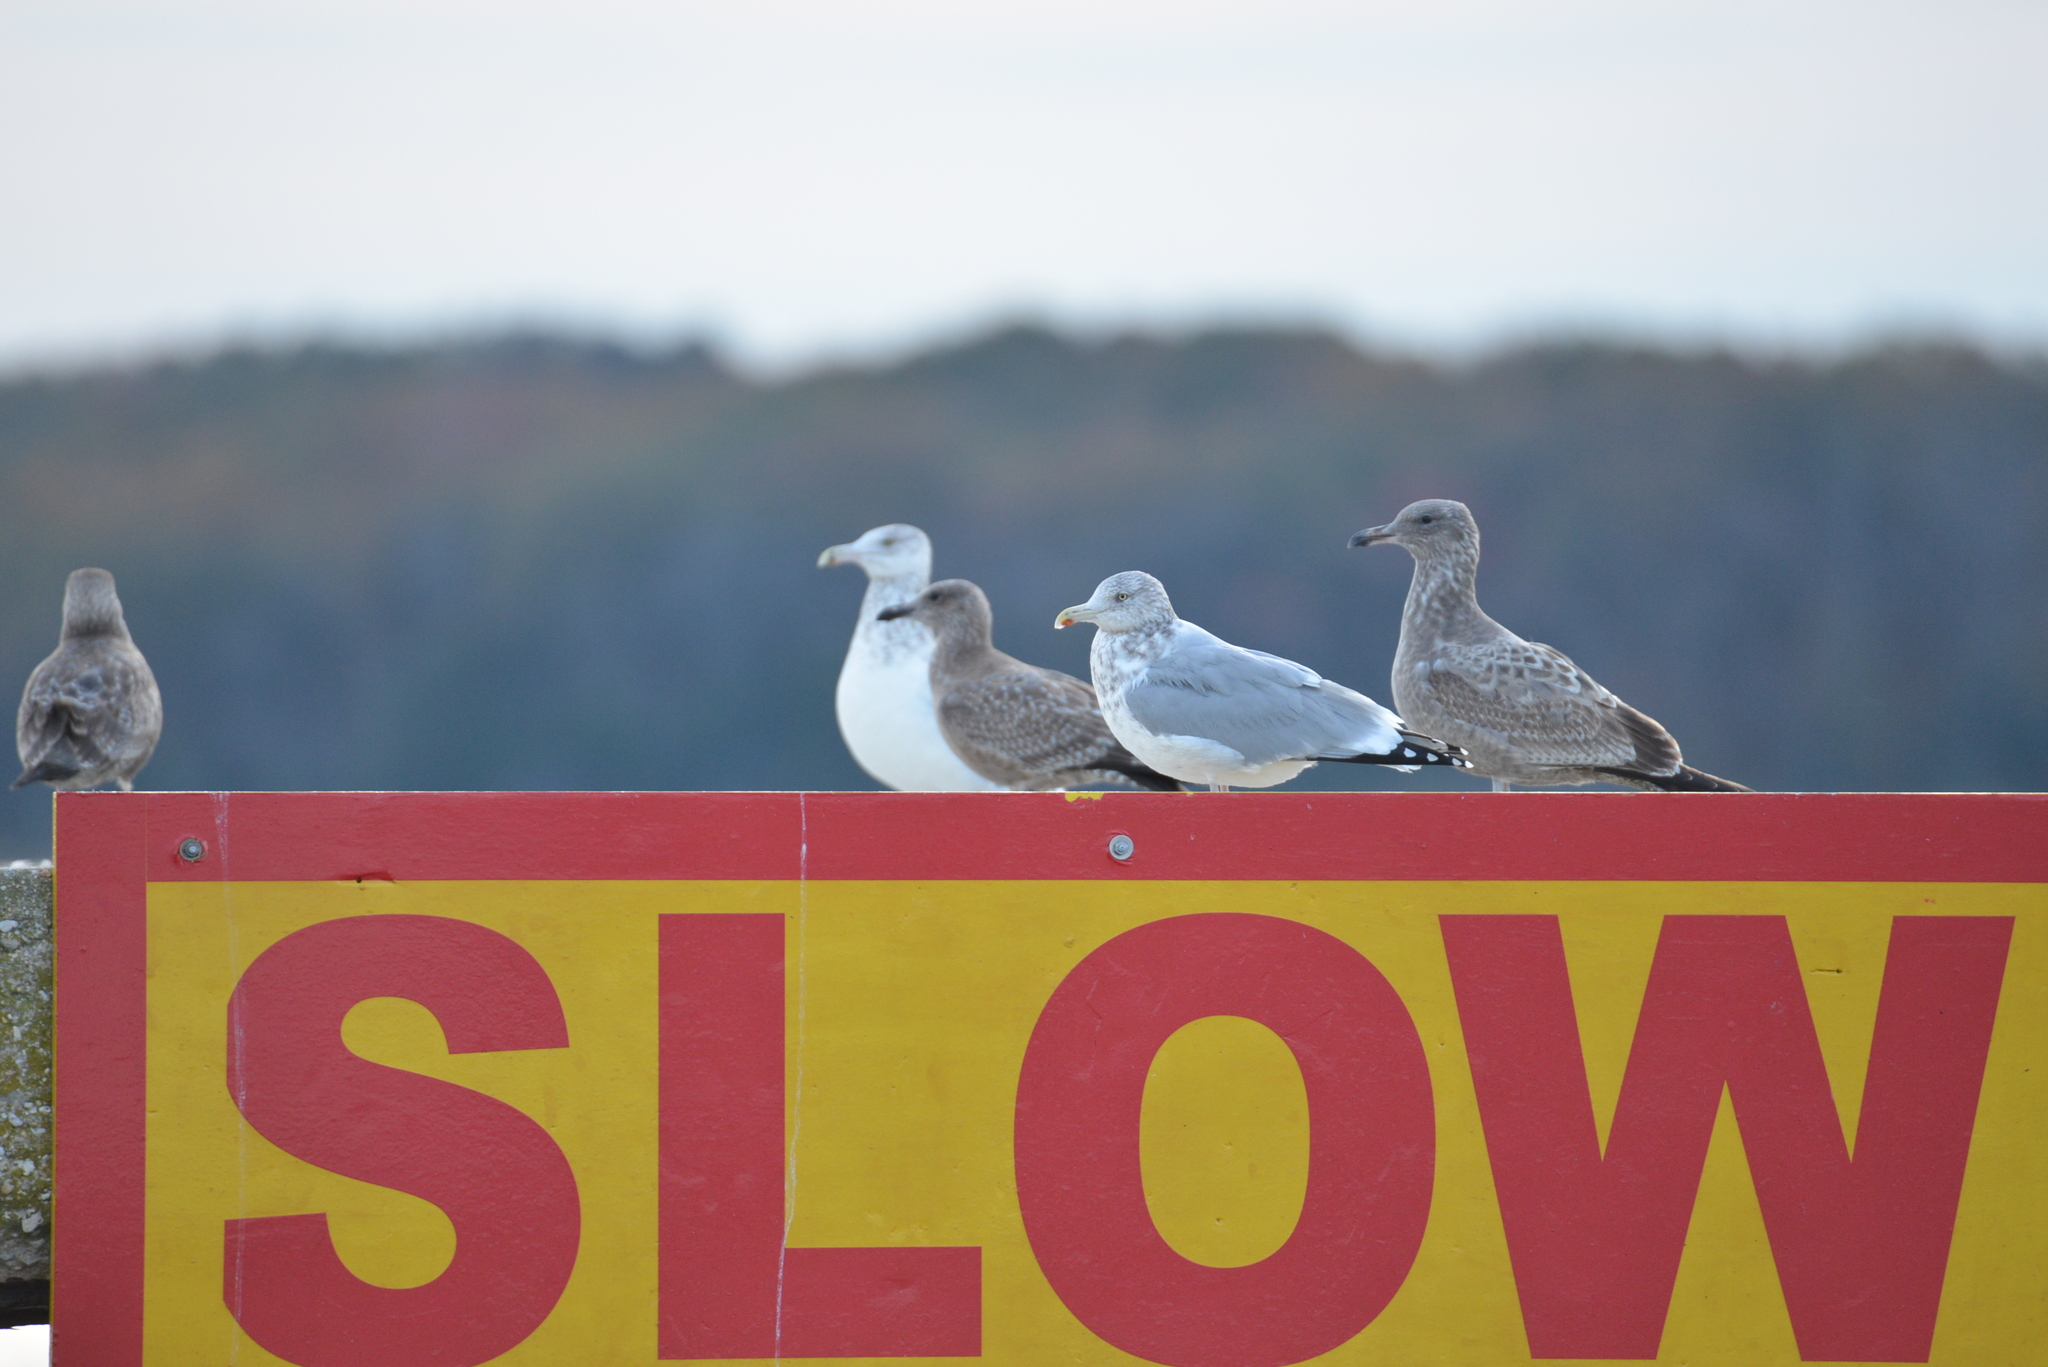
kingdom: Animalia
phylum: Chordata
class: Aves
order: Charadriiformes
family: Laridae
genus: Larus
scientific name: Larus argentatus
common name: Herring gull
